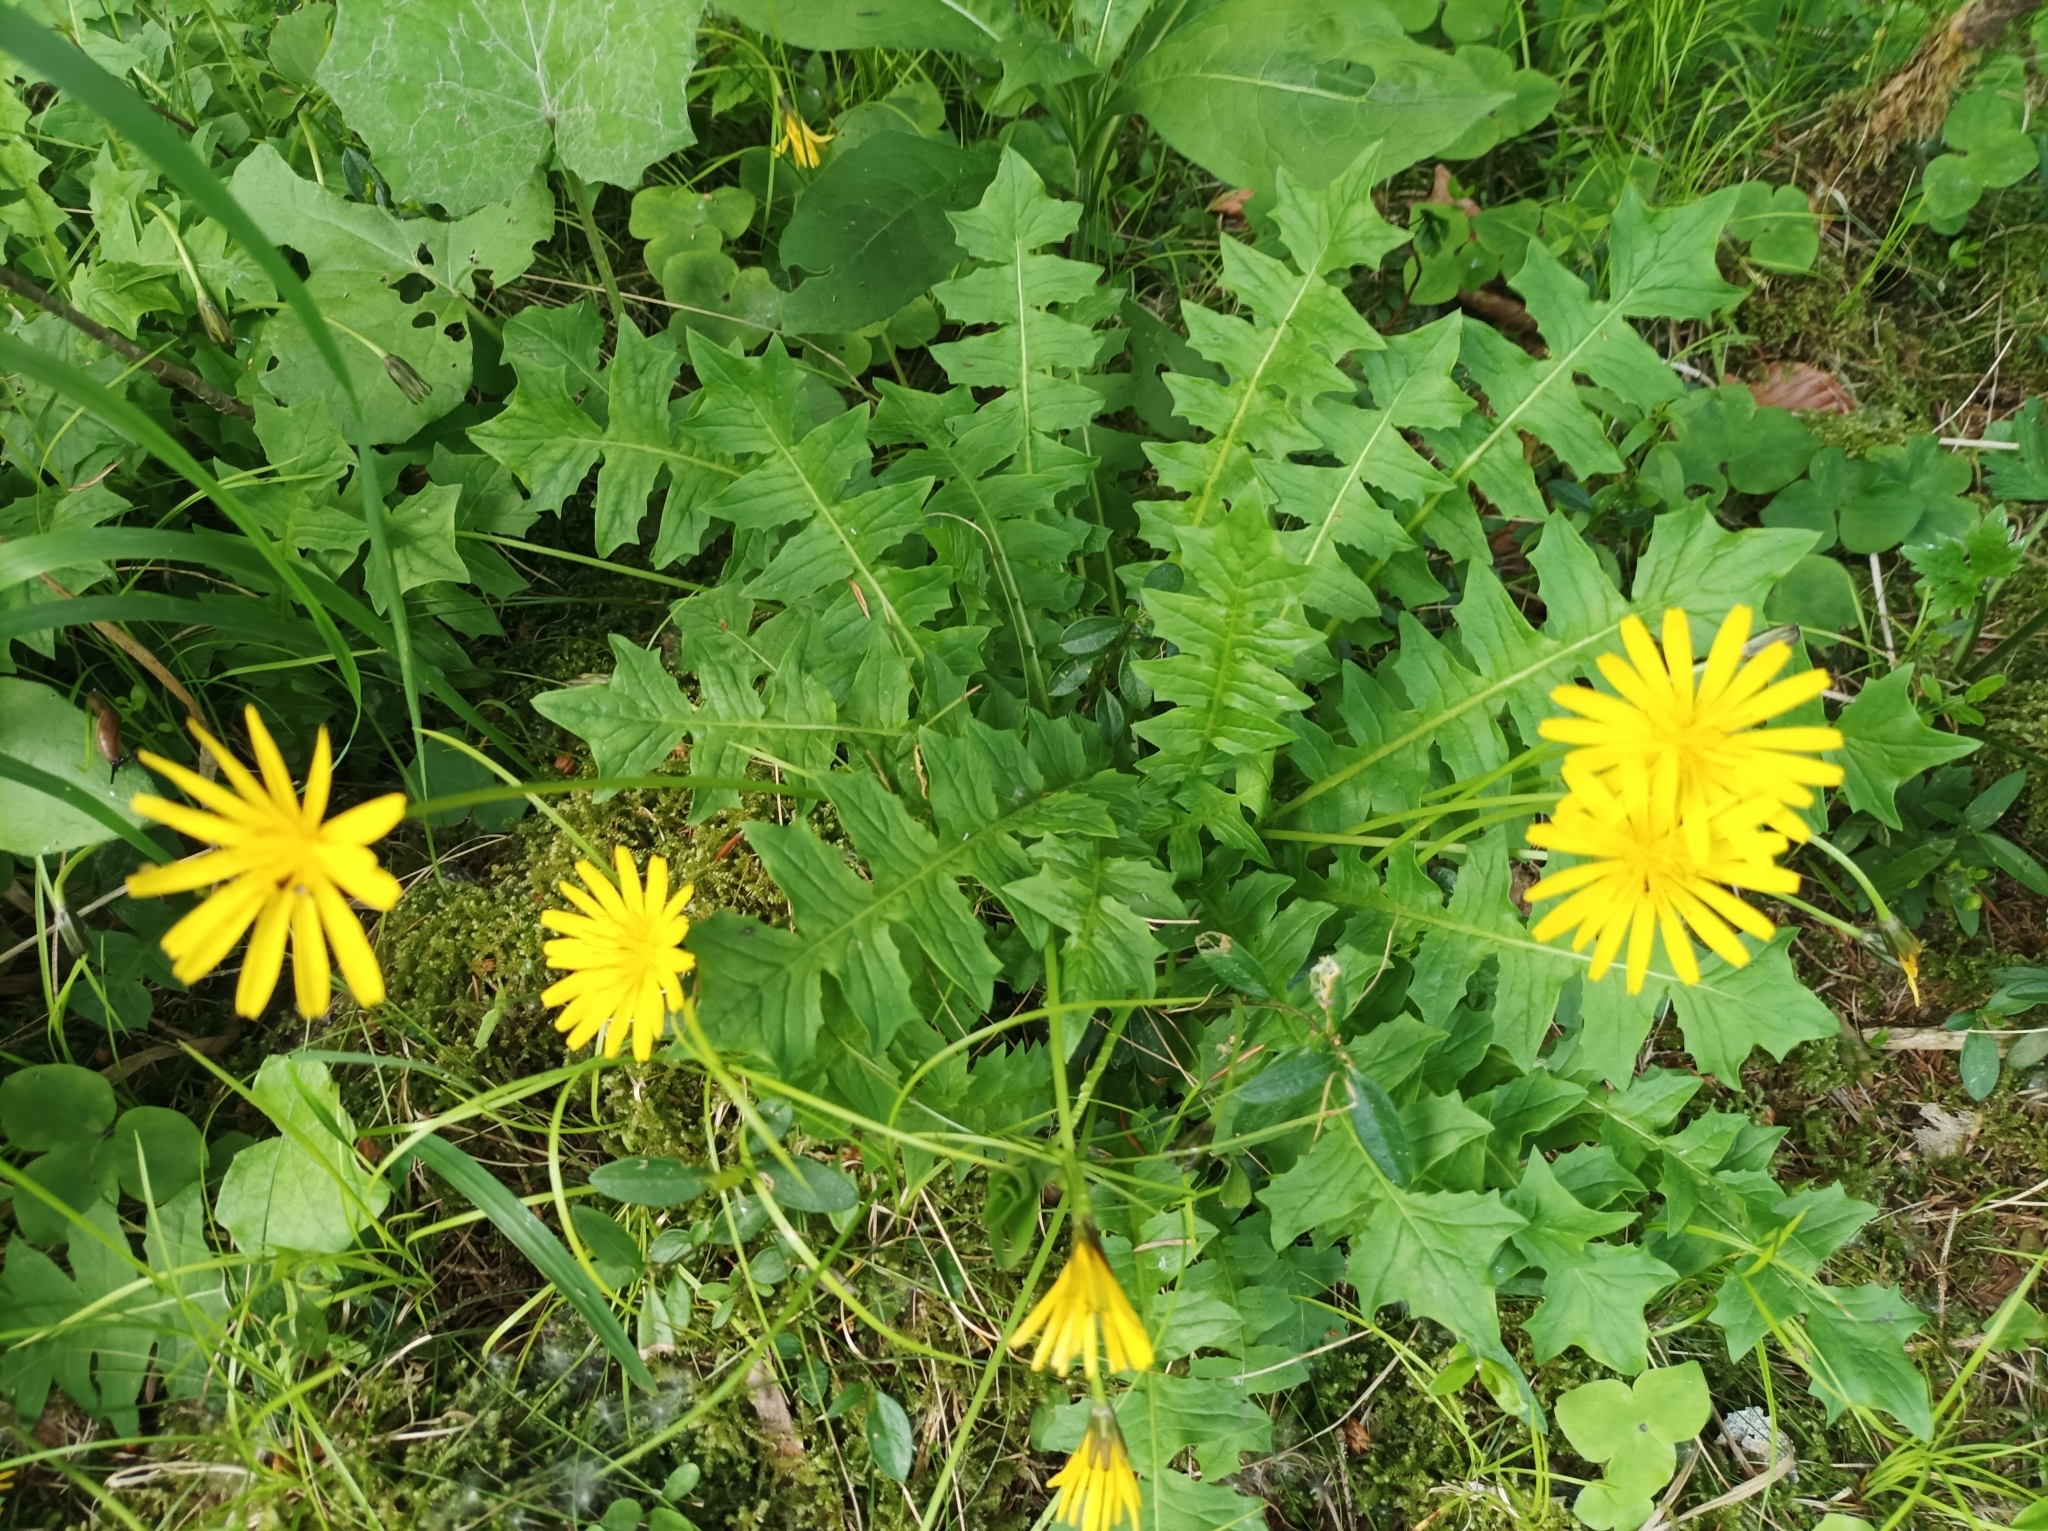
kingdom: Plantae
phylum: Tracheophyta
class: Magnoliopsida
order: Asterales
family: Asteraceae
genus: Aposeris
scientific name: Aposeris foetida
